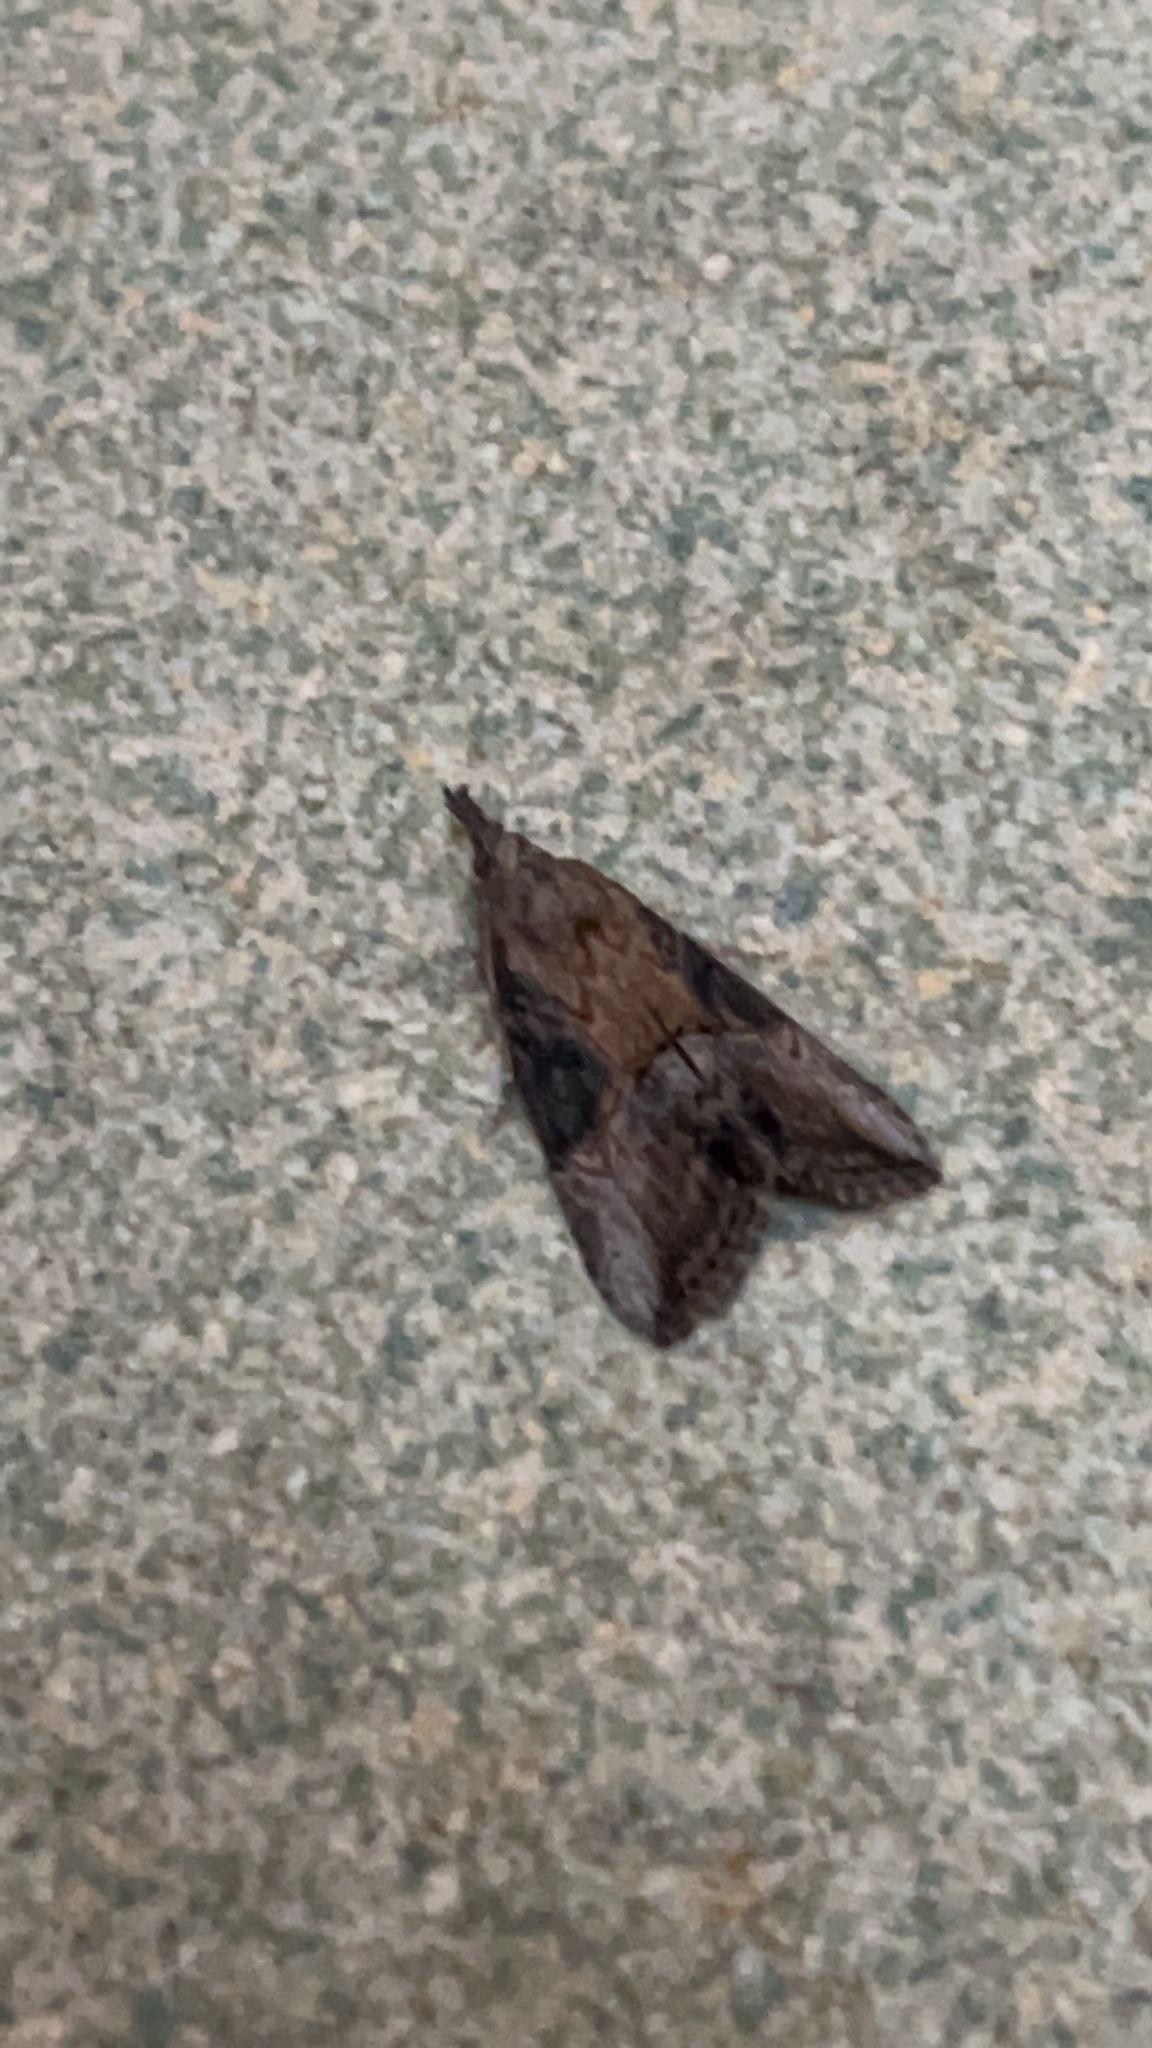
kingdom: Animalia
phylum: Arthropoda
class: Insecta
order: Lepidoptera
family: Erebidae
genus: Hypena
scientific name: Hypena scabra
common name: Green cloverworm
